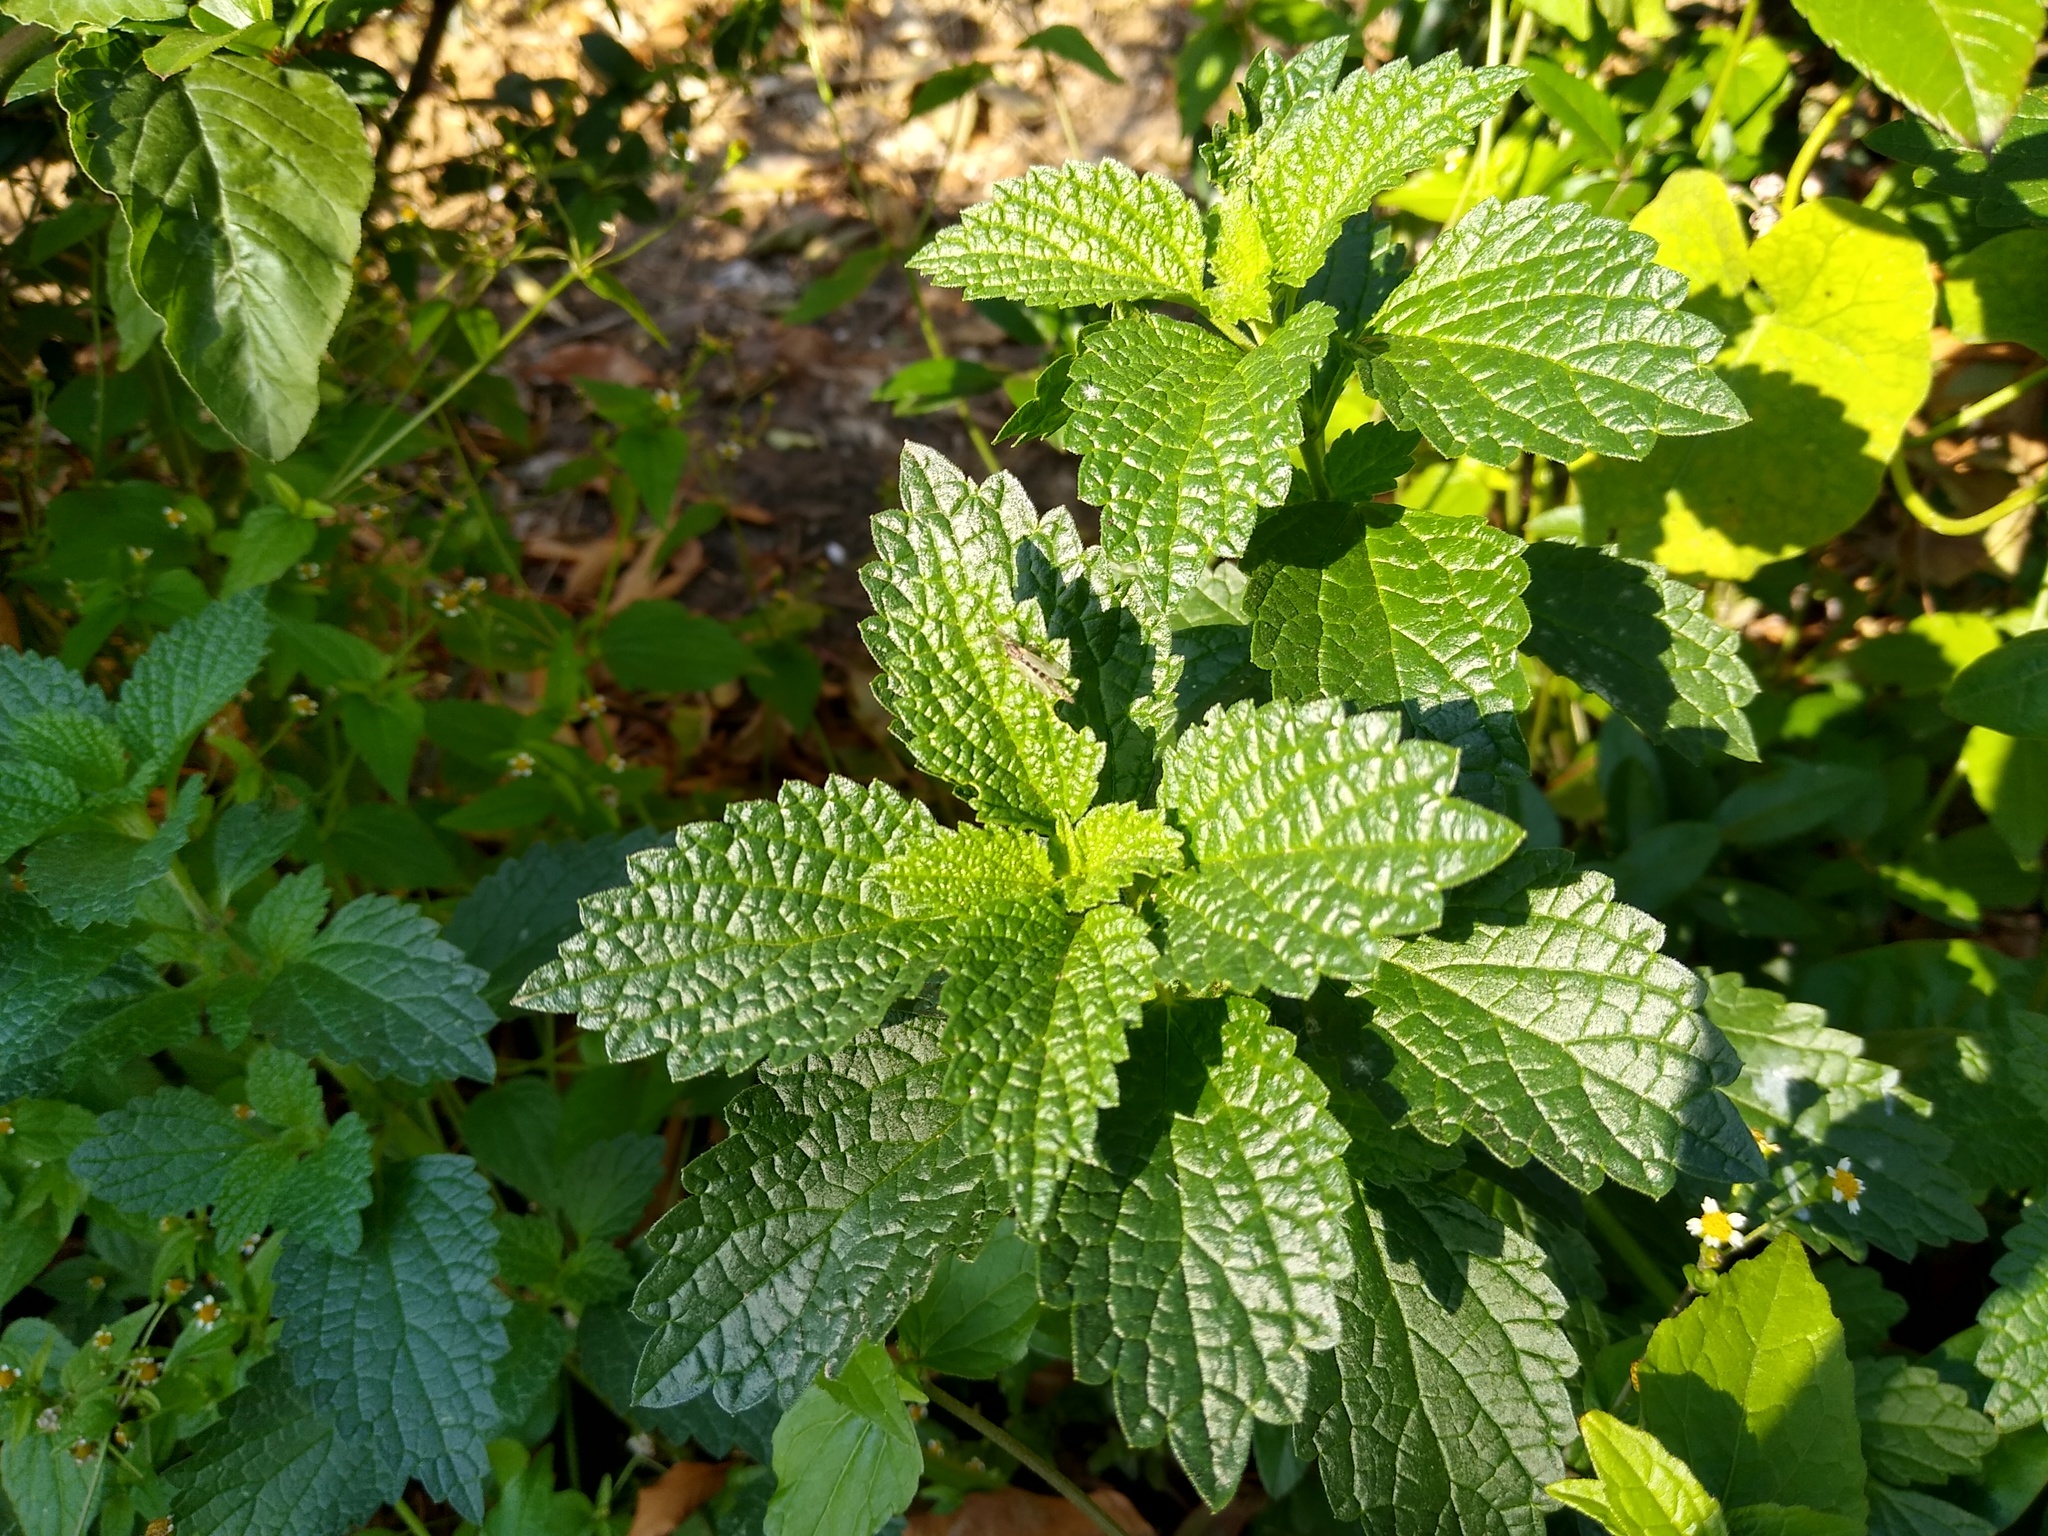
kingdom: Plantae
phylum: Tracheophyta
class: Magnoliopsida
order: Lamiales
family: Lamiaceae
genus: Ballota
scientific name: Ballota nigra
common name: Black horehound
